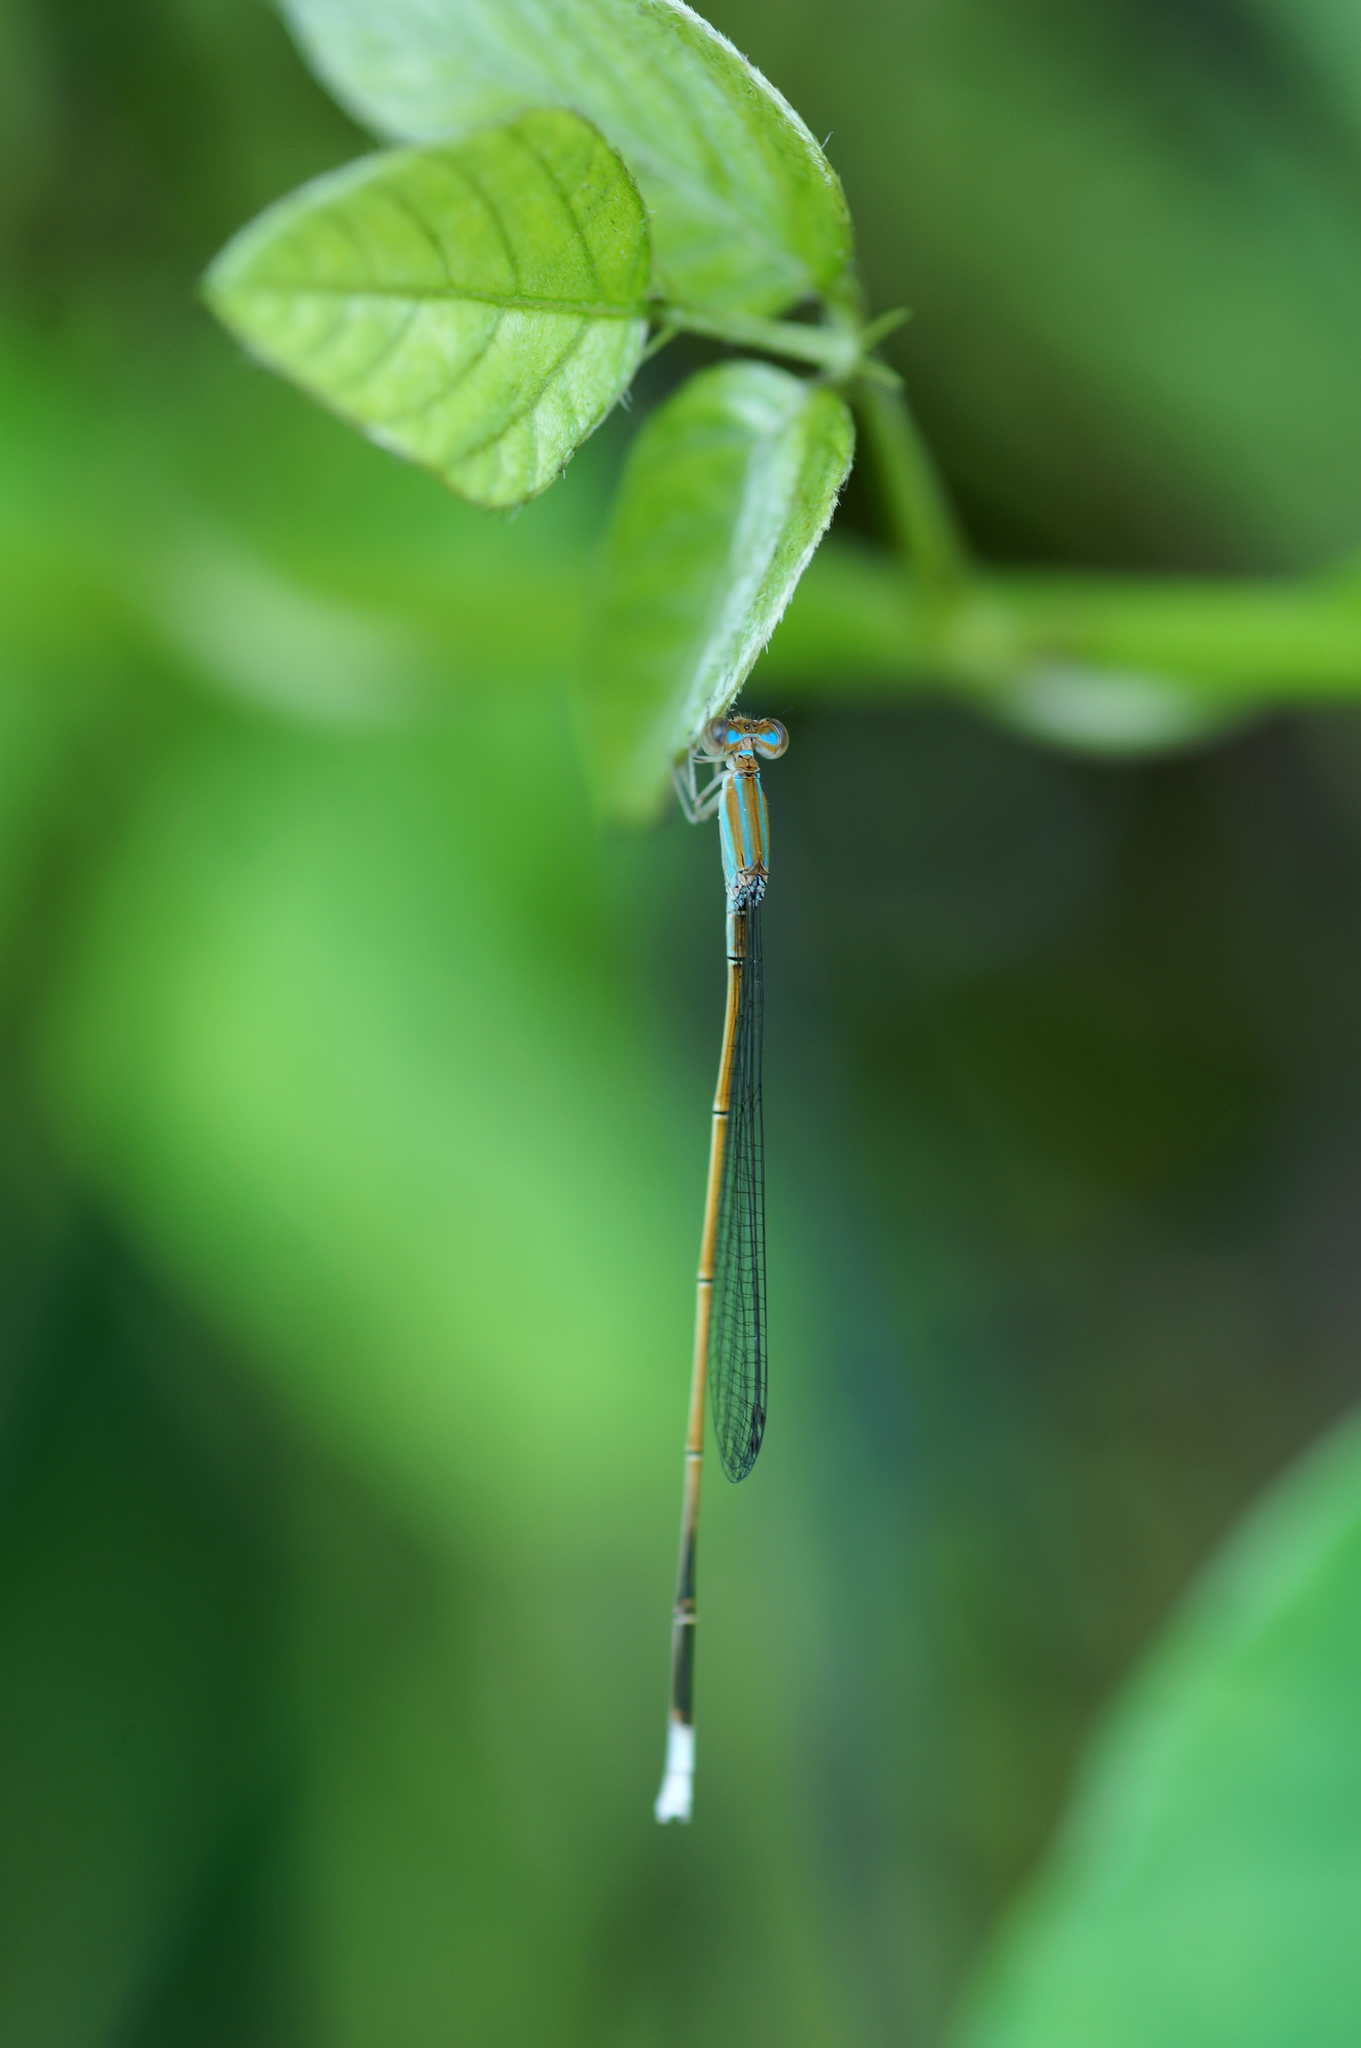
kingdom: Animalia
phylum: Arthropoda
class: Insecta
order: Odonata
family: Coenagrionidae
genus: Aciagrion
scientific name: Aciagrion pallidum
